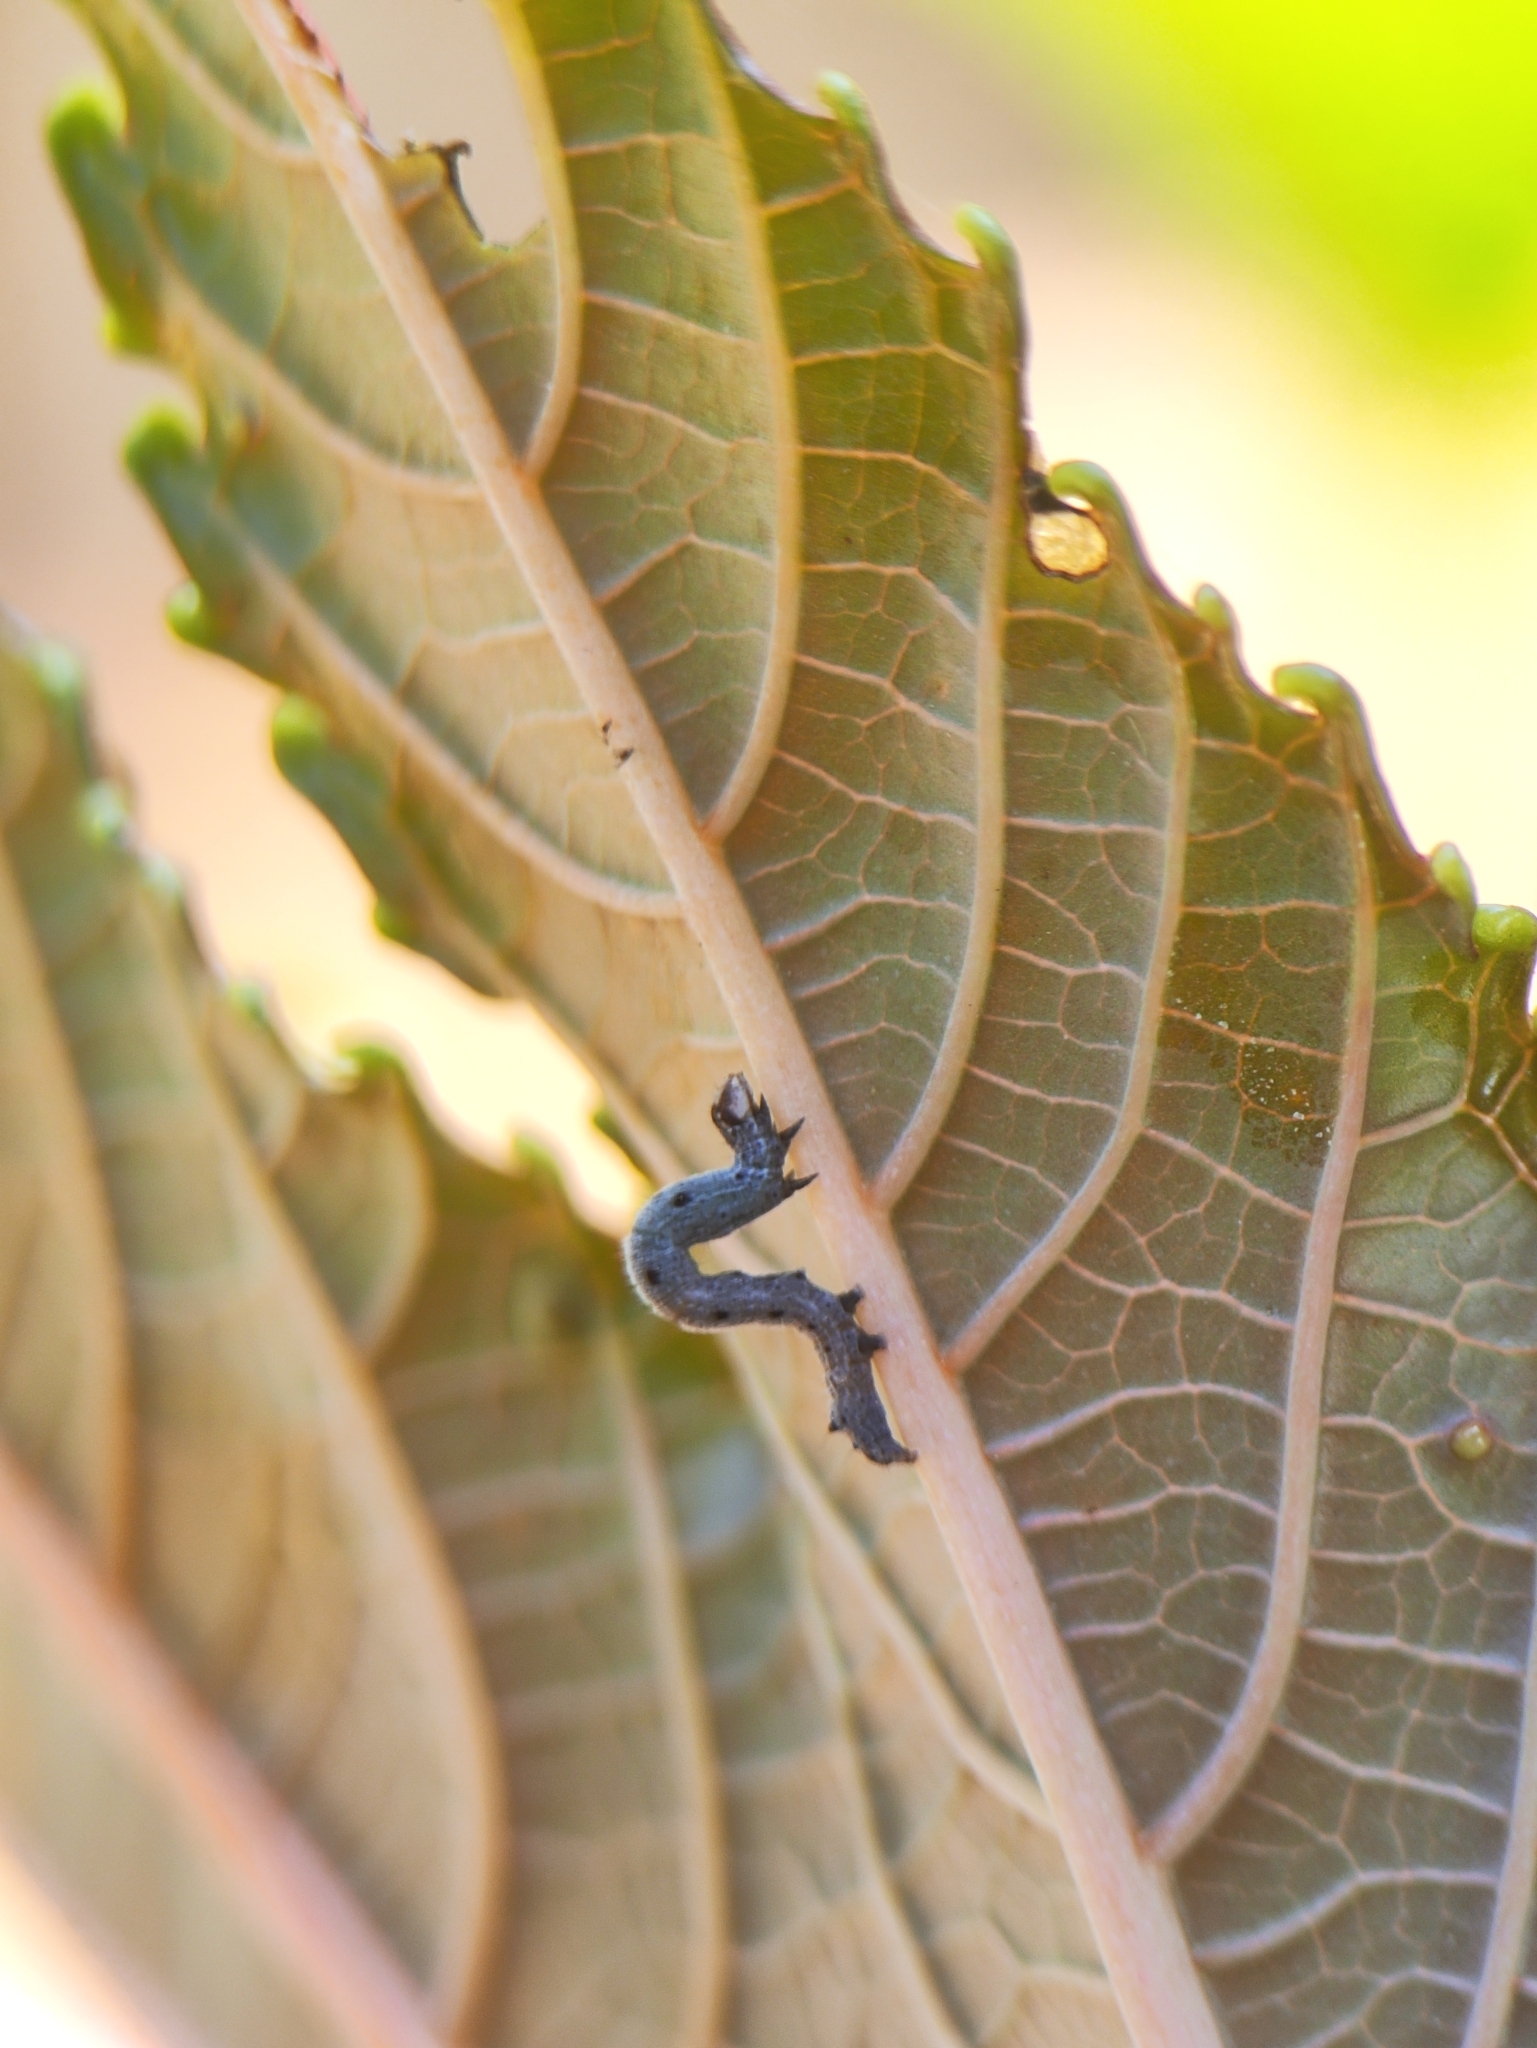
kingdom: Animalia
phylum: Arthropoda
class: Insecta
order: Lepidoptera
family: Erebidae
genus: Achaea
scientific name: Achaea janata
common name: Croton caterpillar
